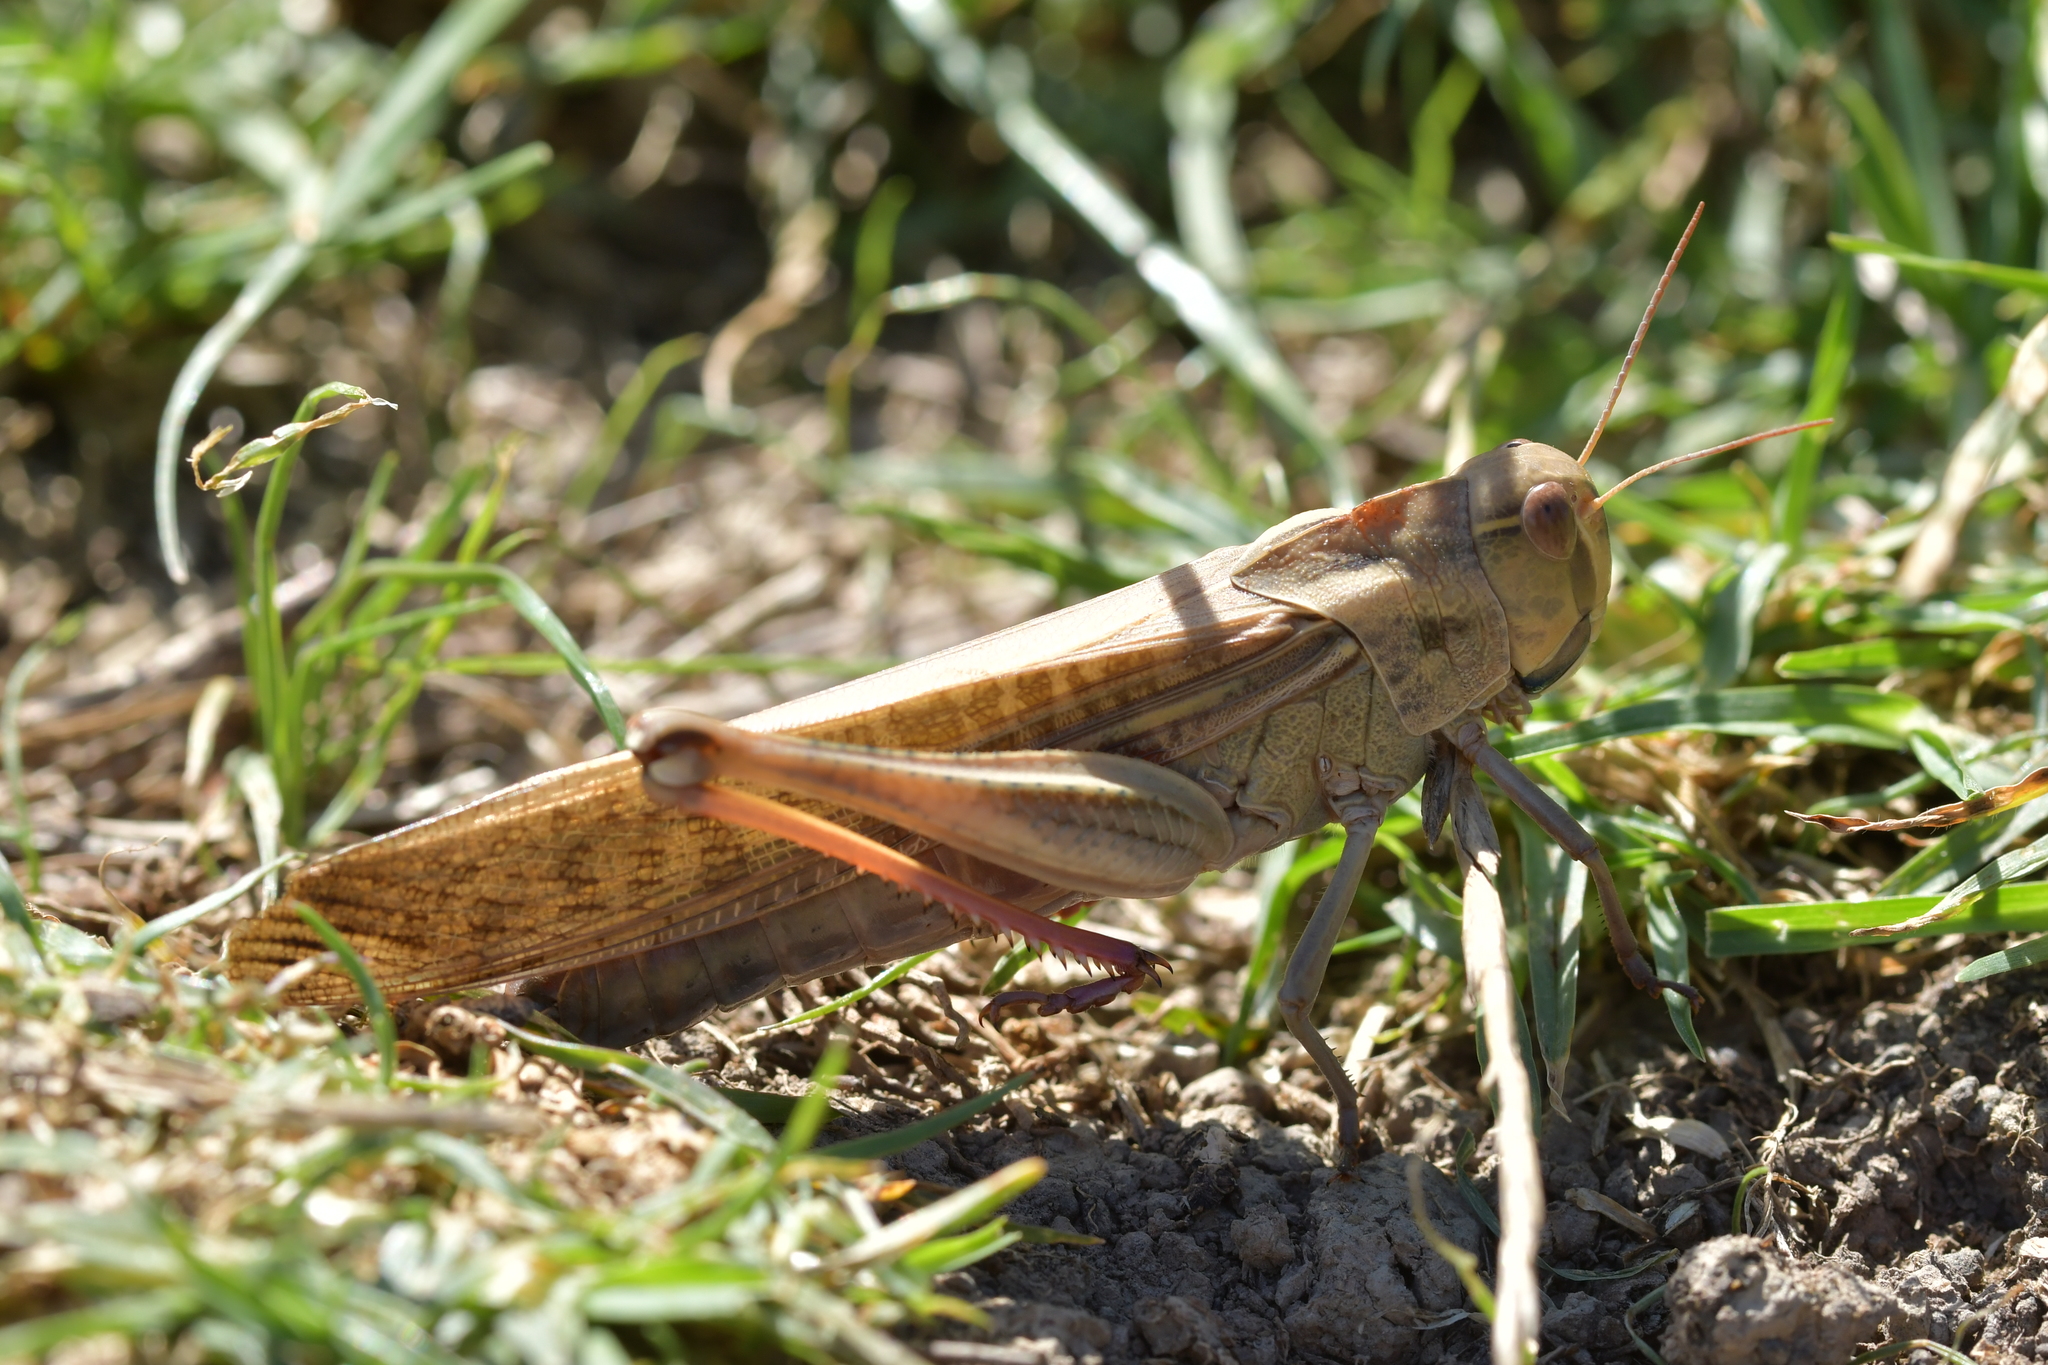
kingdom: Animalia
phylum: Arthropoda
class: Insecta
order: Orthoptera
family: Acrididae
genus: Locusta
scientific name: Locusta migratoria
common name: Migratory locust
